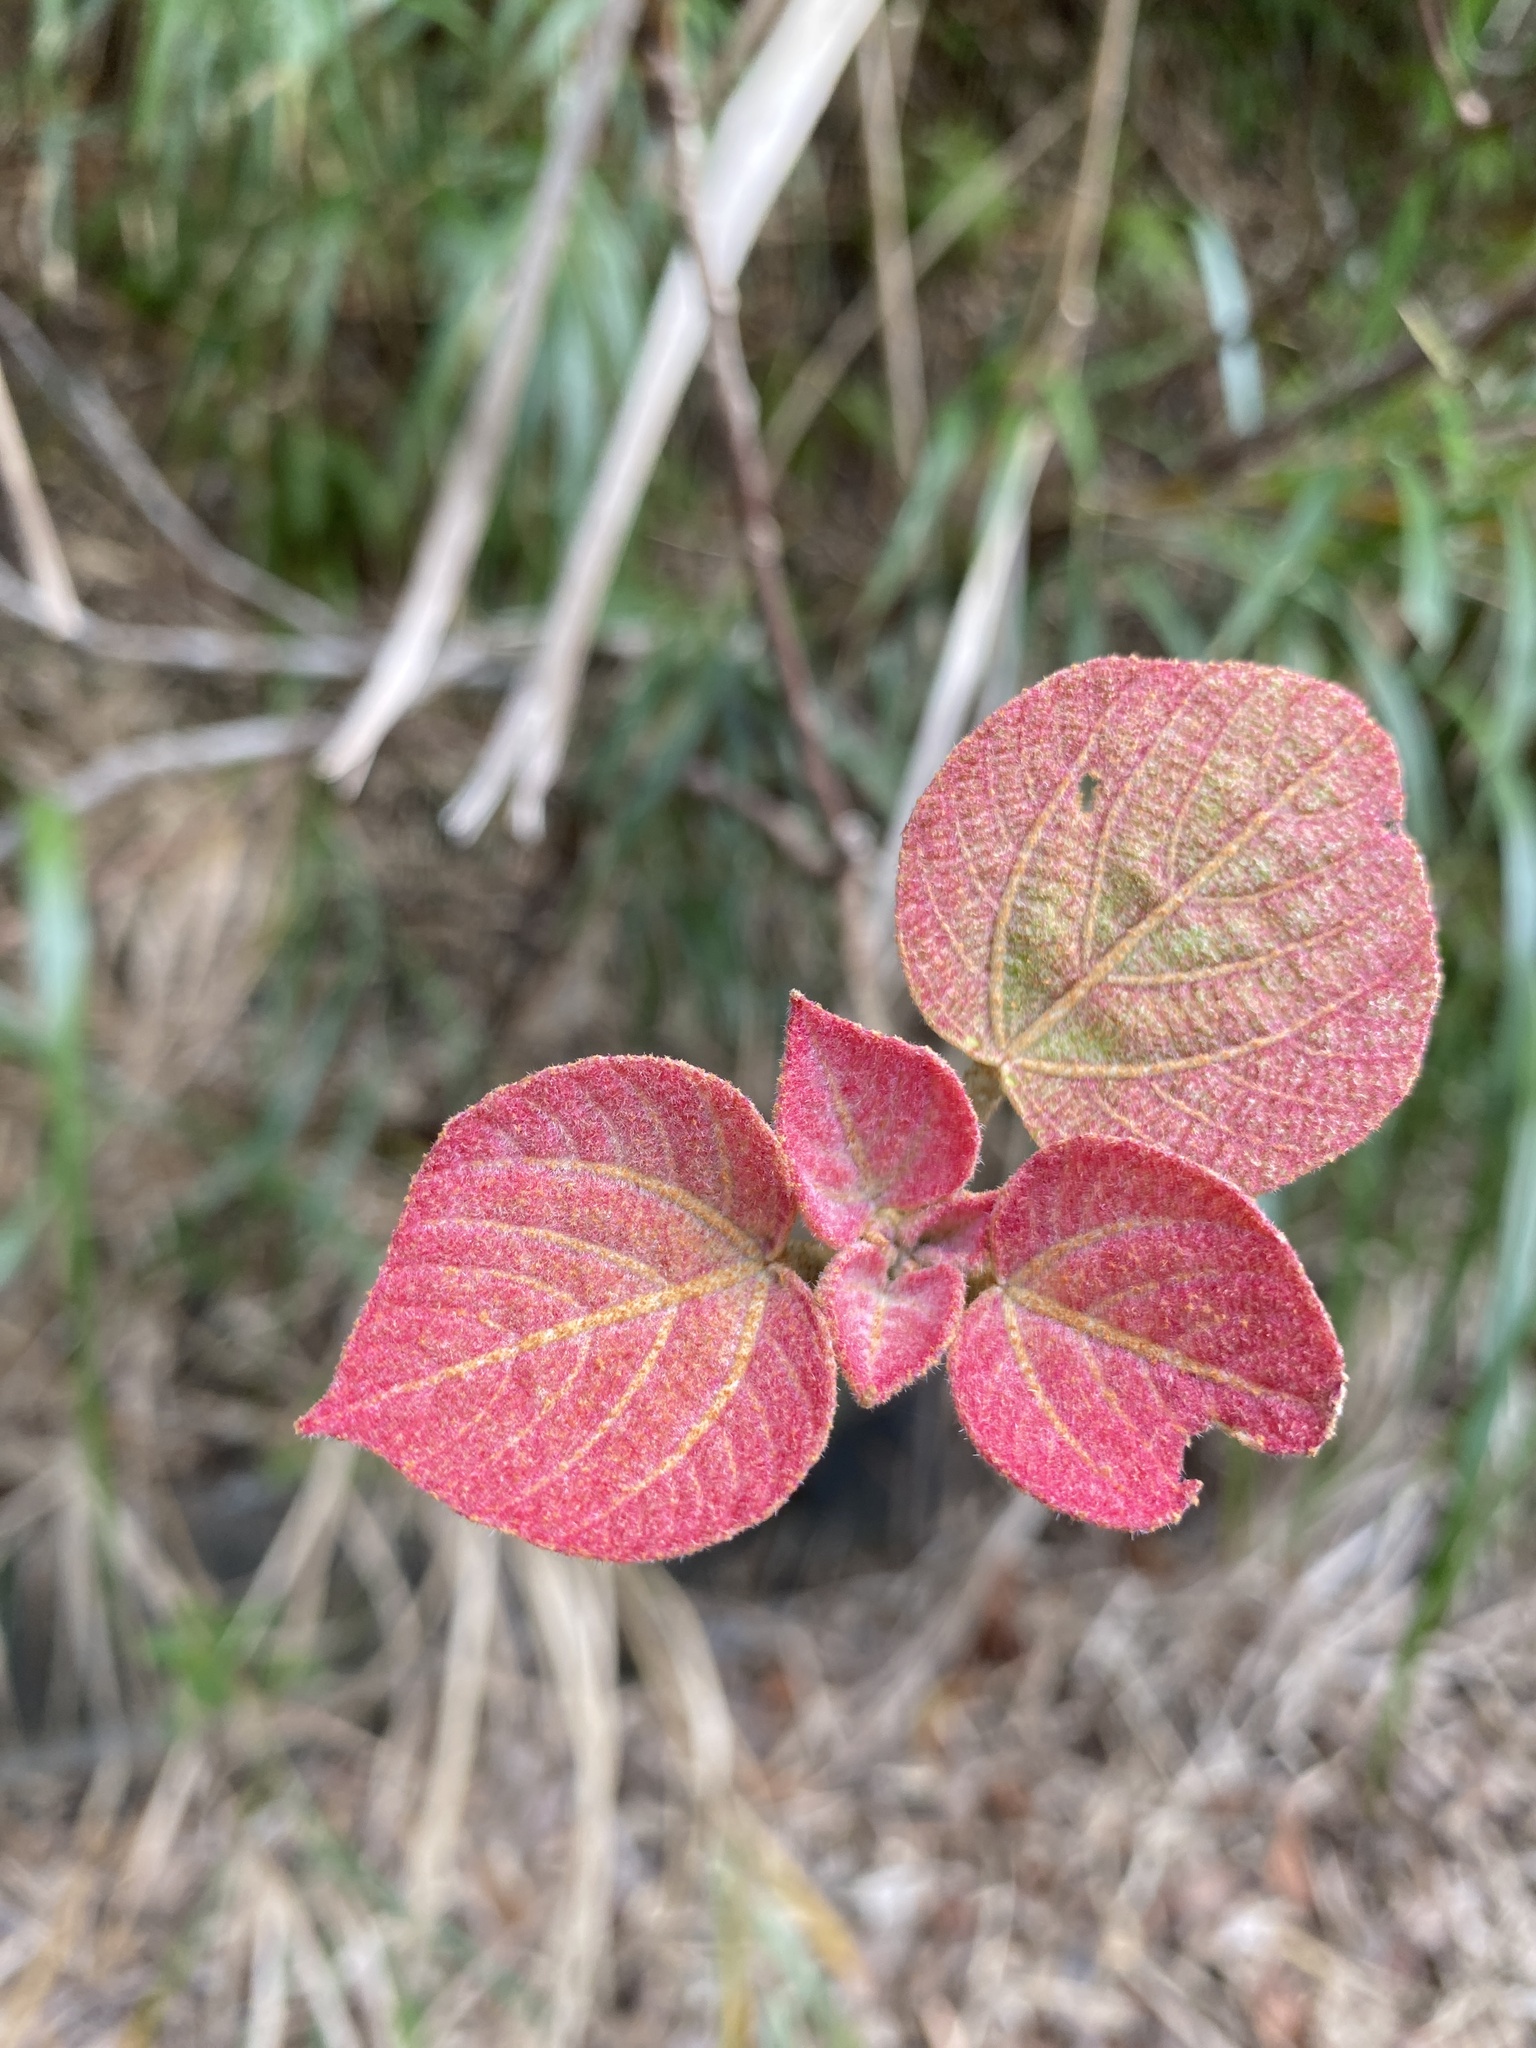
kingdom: Plantae
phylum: Tracheophyta
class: Magnoliopsida
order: Malpighiales
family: Euphorbiaceae
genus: Mallotus
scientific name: Mallotus japonicus
